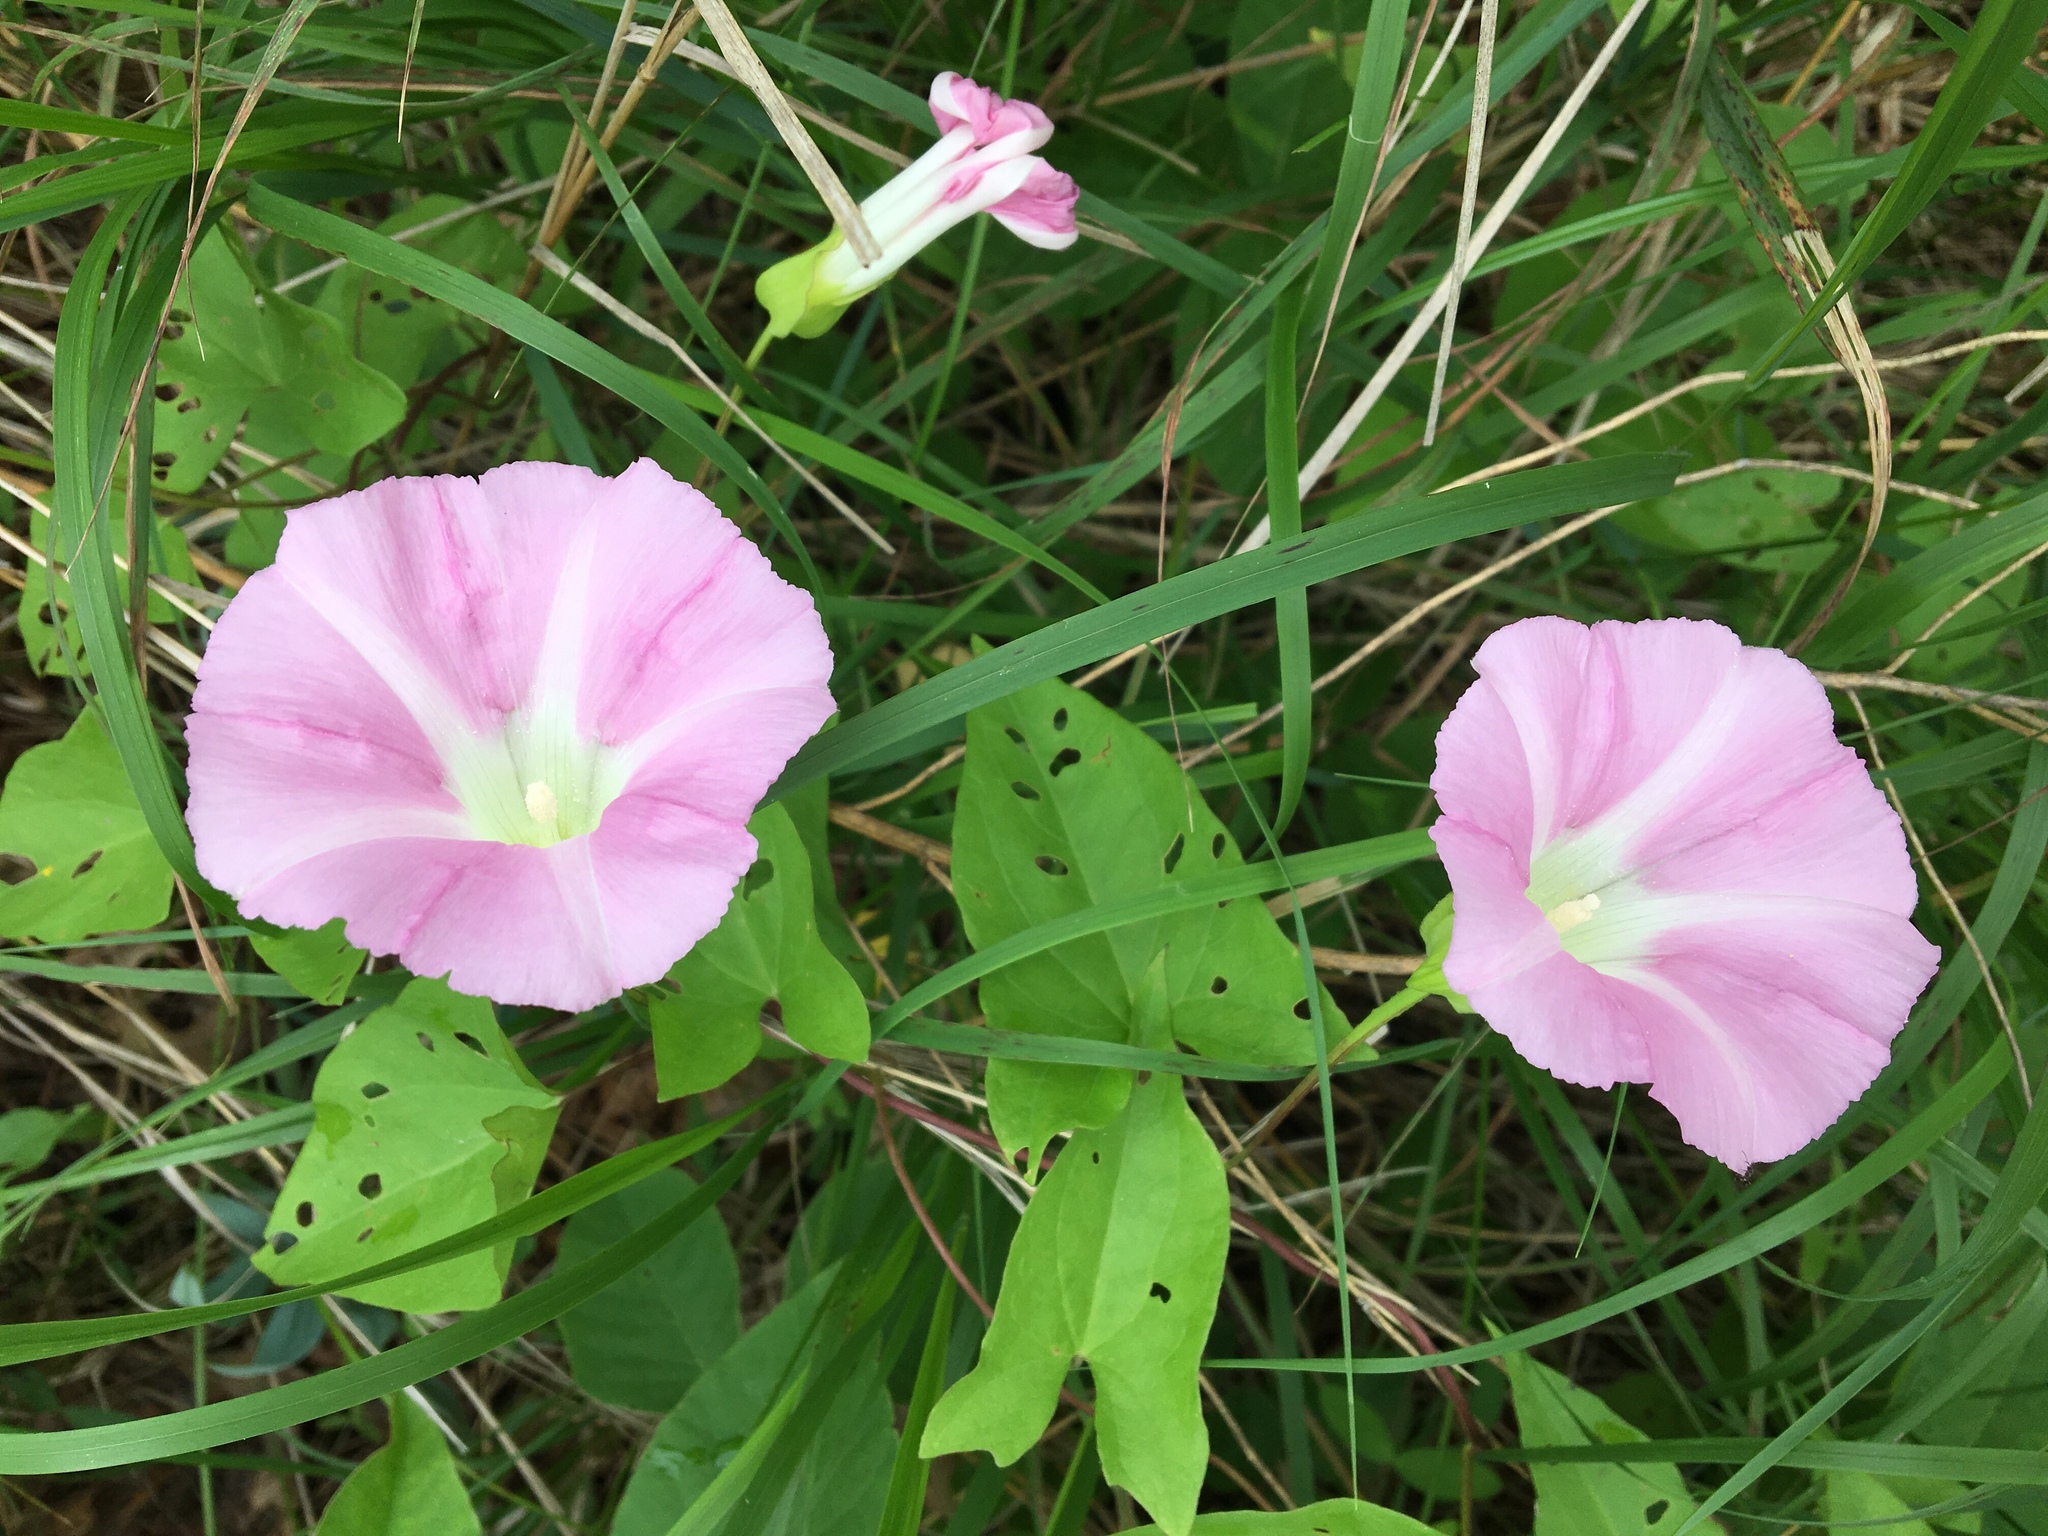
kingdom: Plantae
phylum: Tracheophyta
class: Magnoliopsida
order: Solanales
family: Convolvulaceae
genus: Calystegia
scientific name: Calystegia sepium
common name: Hedge bindweed
